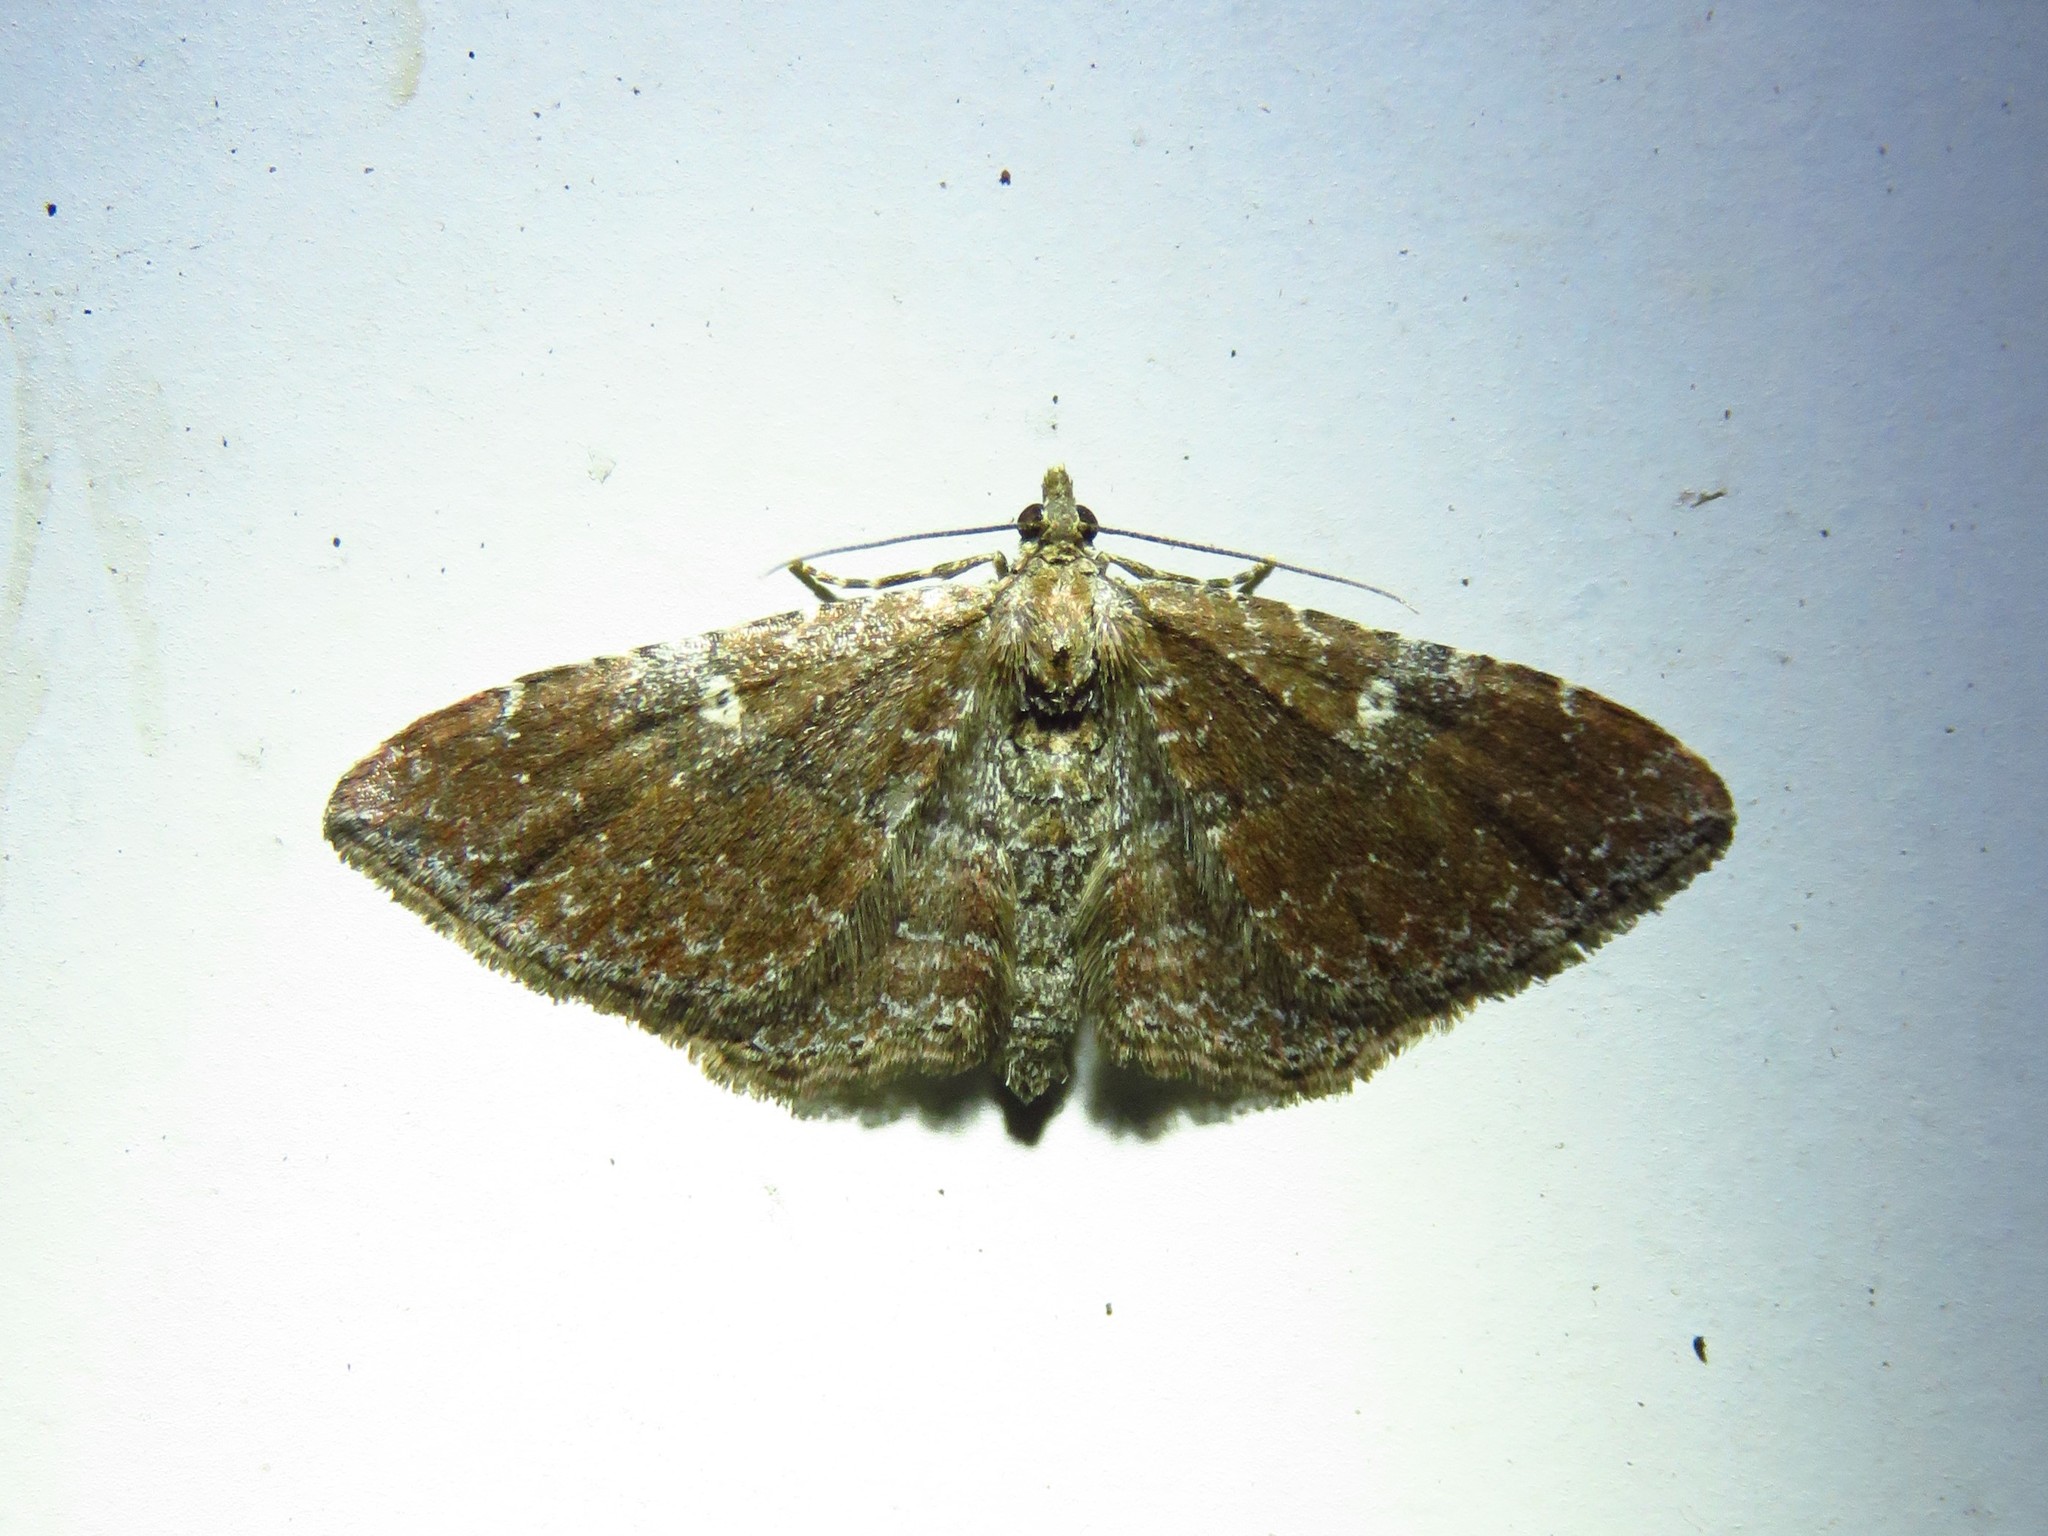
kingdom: Animalia
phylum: Arthropoda
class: Insecta
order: Lepidoptera
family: Geometridae
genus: Orthonama
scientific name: Orthonama obstipata
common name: The gem
